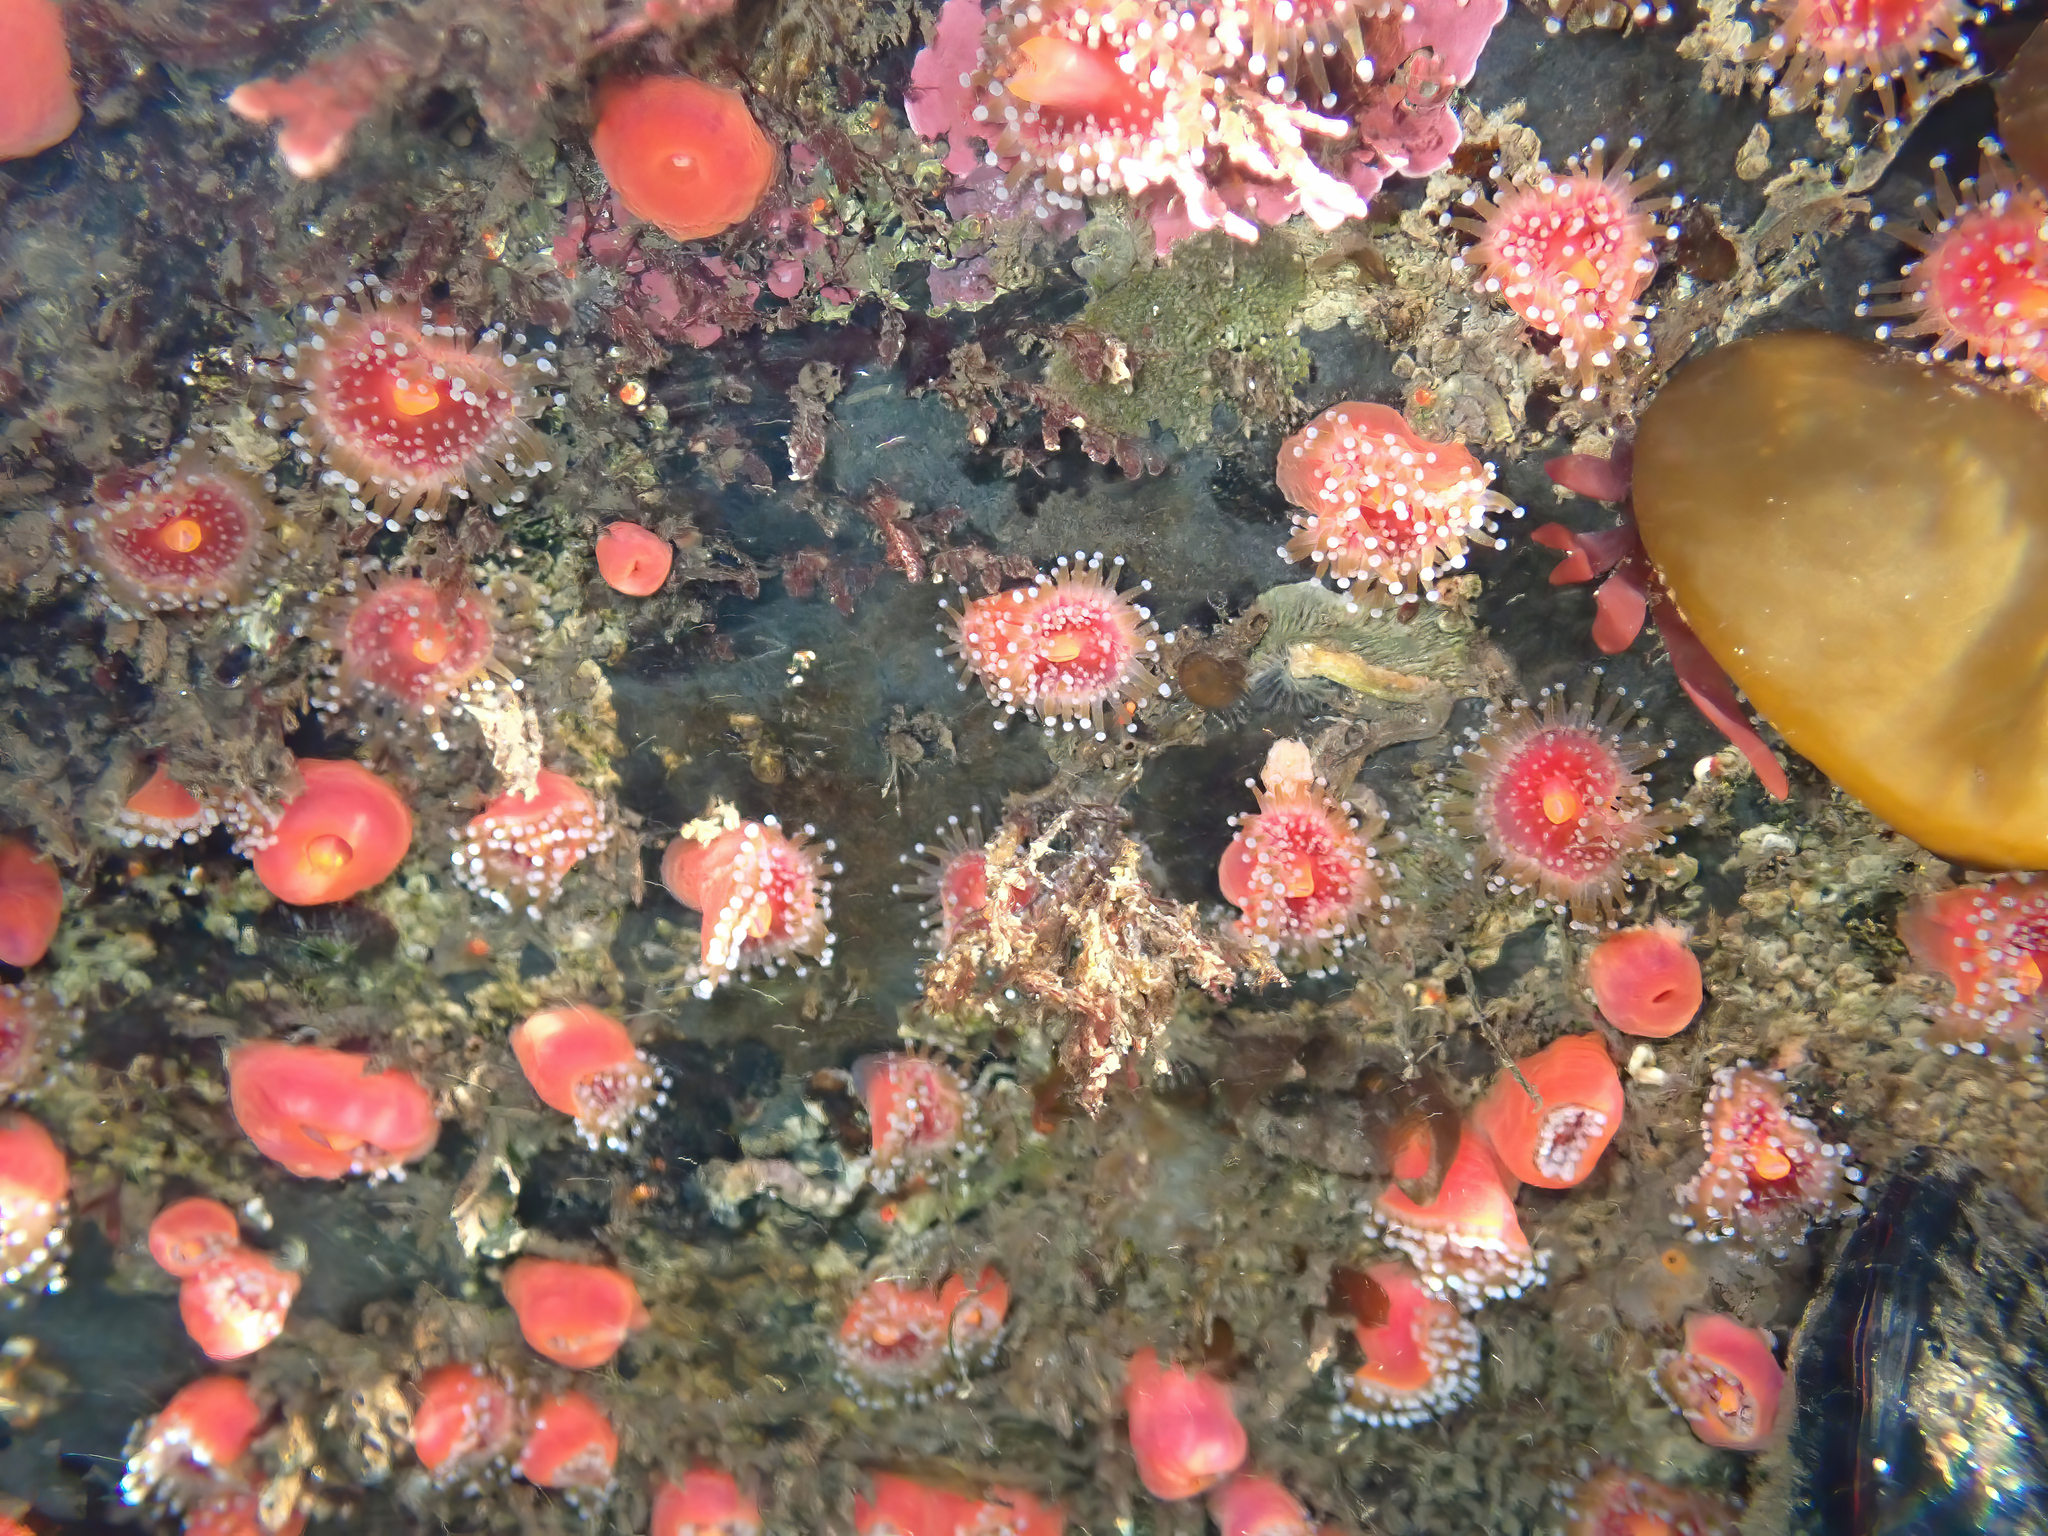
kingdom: Animalia
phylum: Cnidaria
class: Anthozoa
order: Corallimorpharia
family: Corallimorphidae
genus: Corynactis
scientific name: Corynactis californica
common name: Strawberry corallimorpharian
